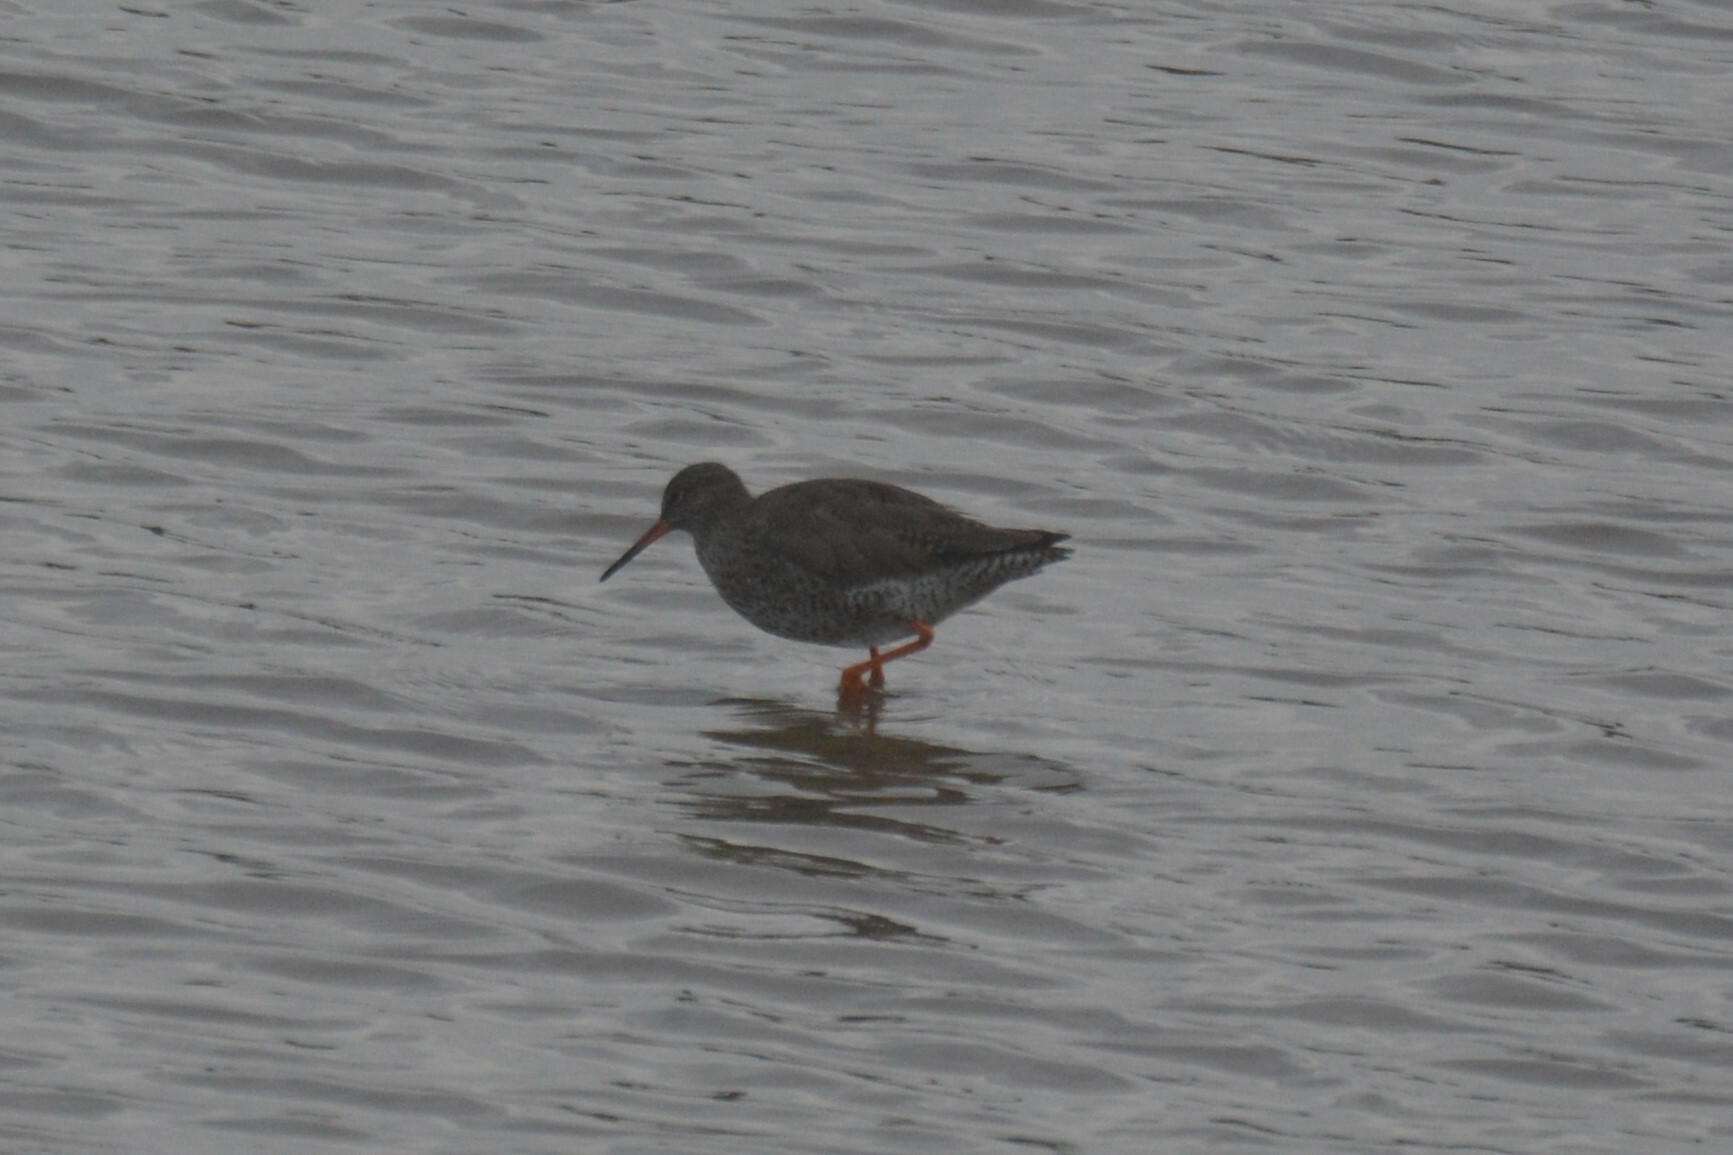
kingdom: Animalia
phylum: Chordata
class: Aves
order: Charadriiformes
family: Scolopacidae
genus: Tringa
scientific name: Tringa totanus
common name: Common redshank
